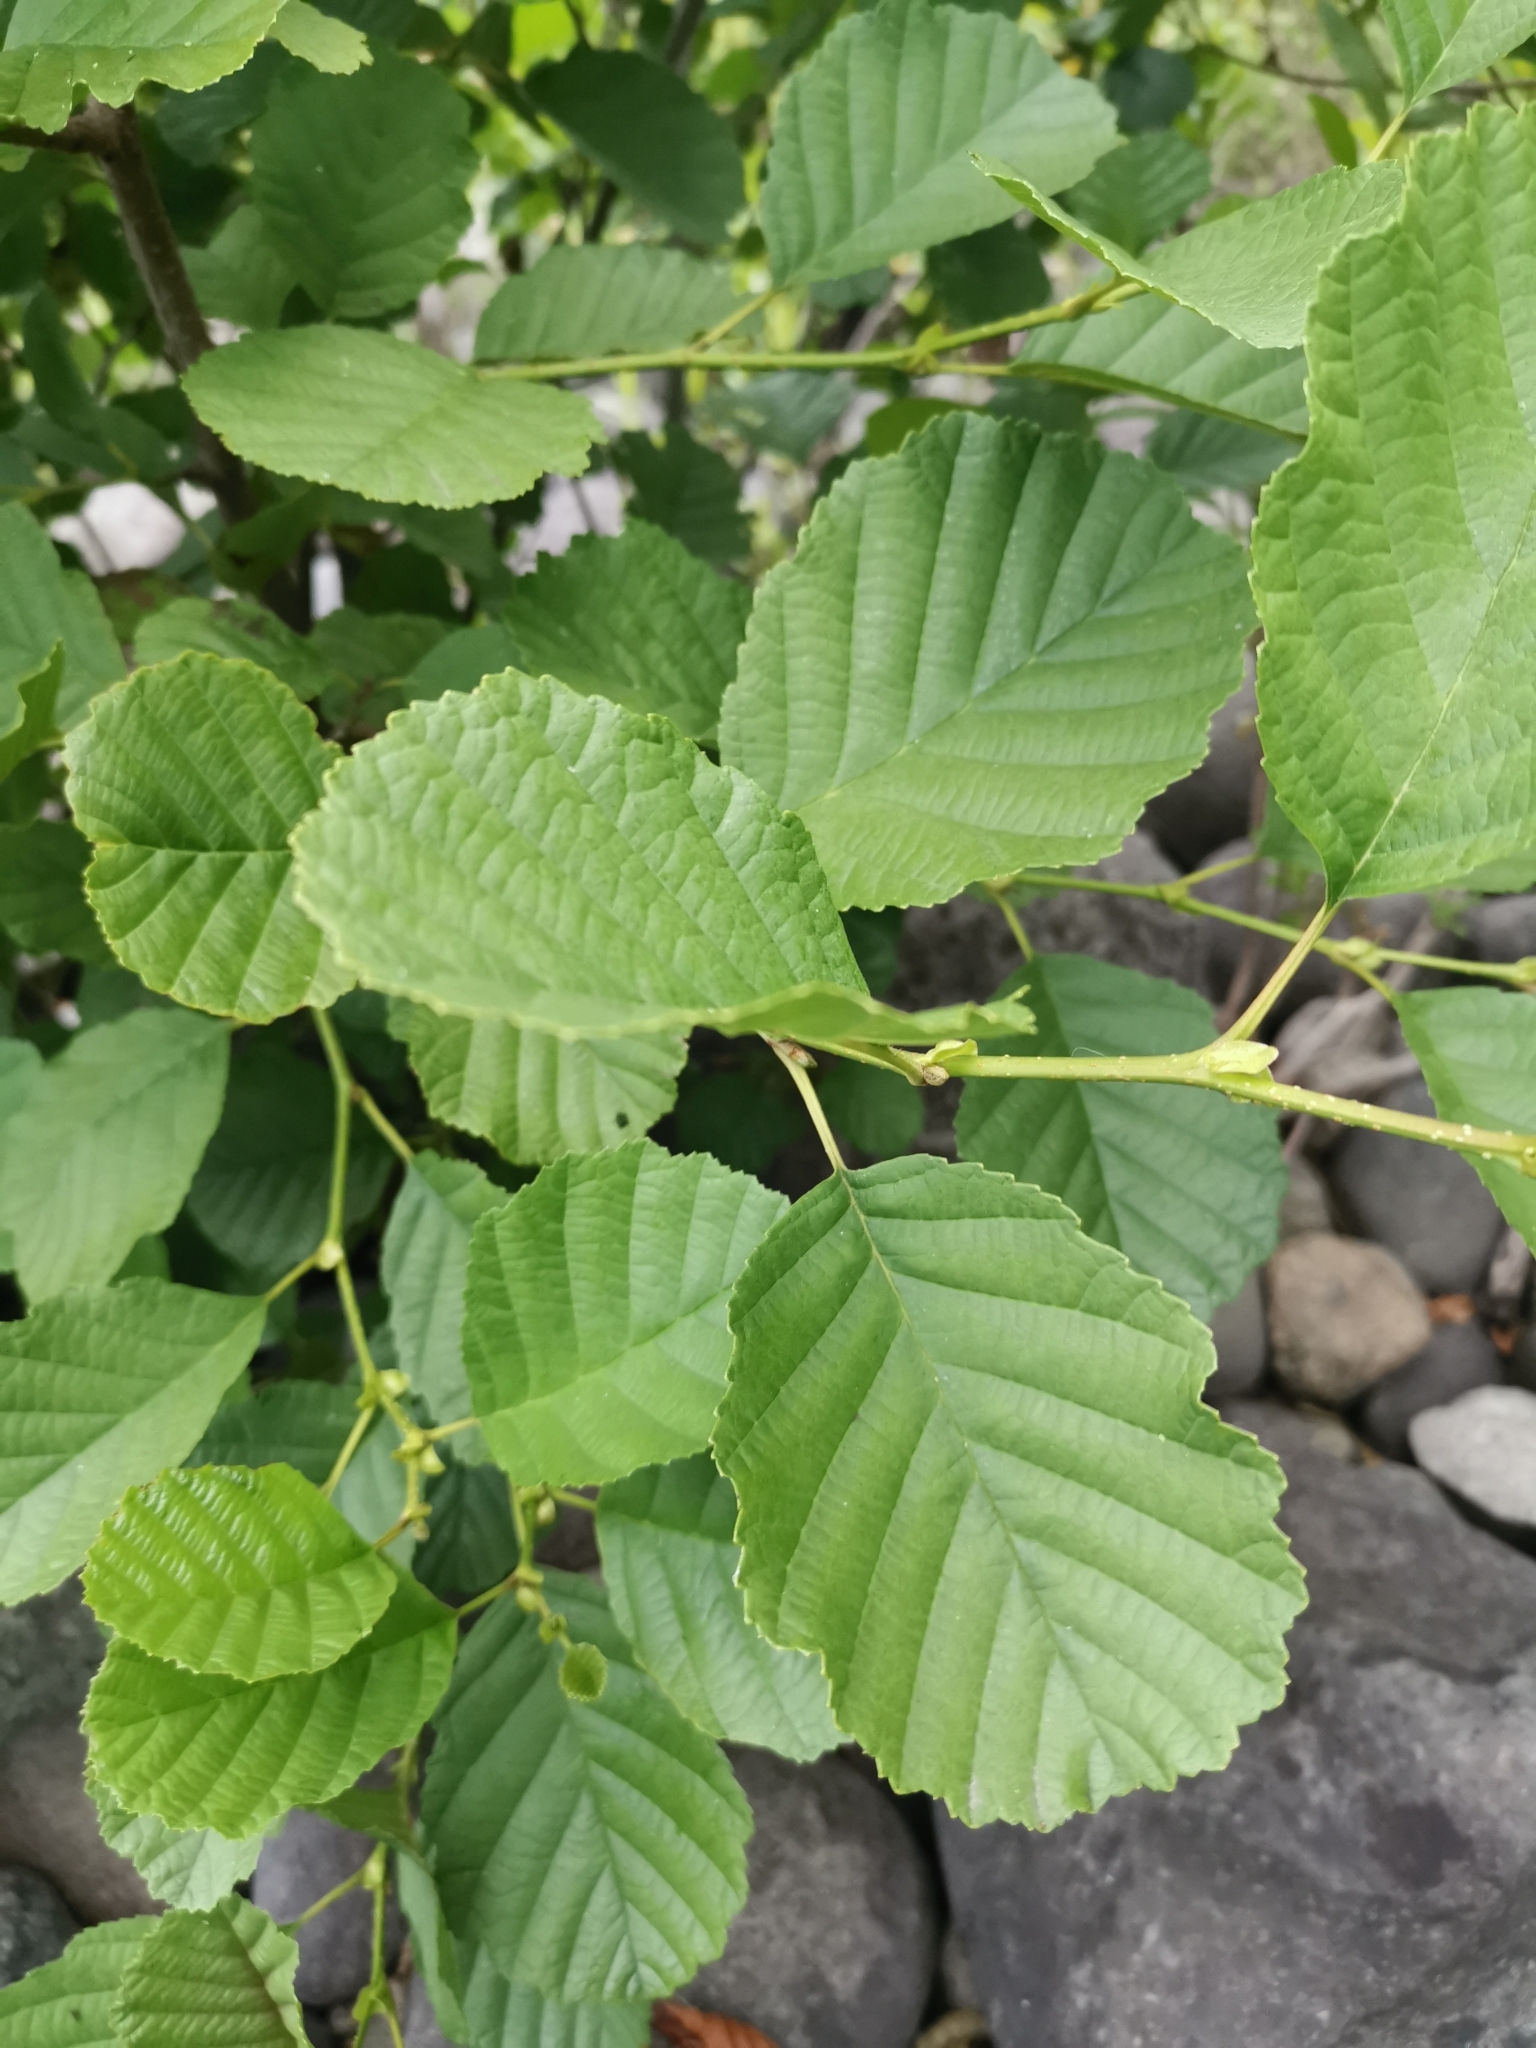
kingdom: Plantae
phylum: Tracheophyta
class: Magnoliopsida
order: Fagales
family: Betulaceae
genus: Alnus
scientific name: Alnus glutinosa
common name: Black alder
